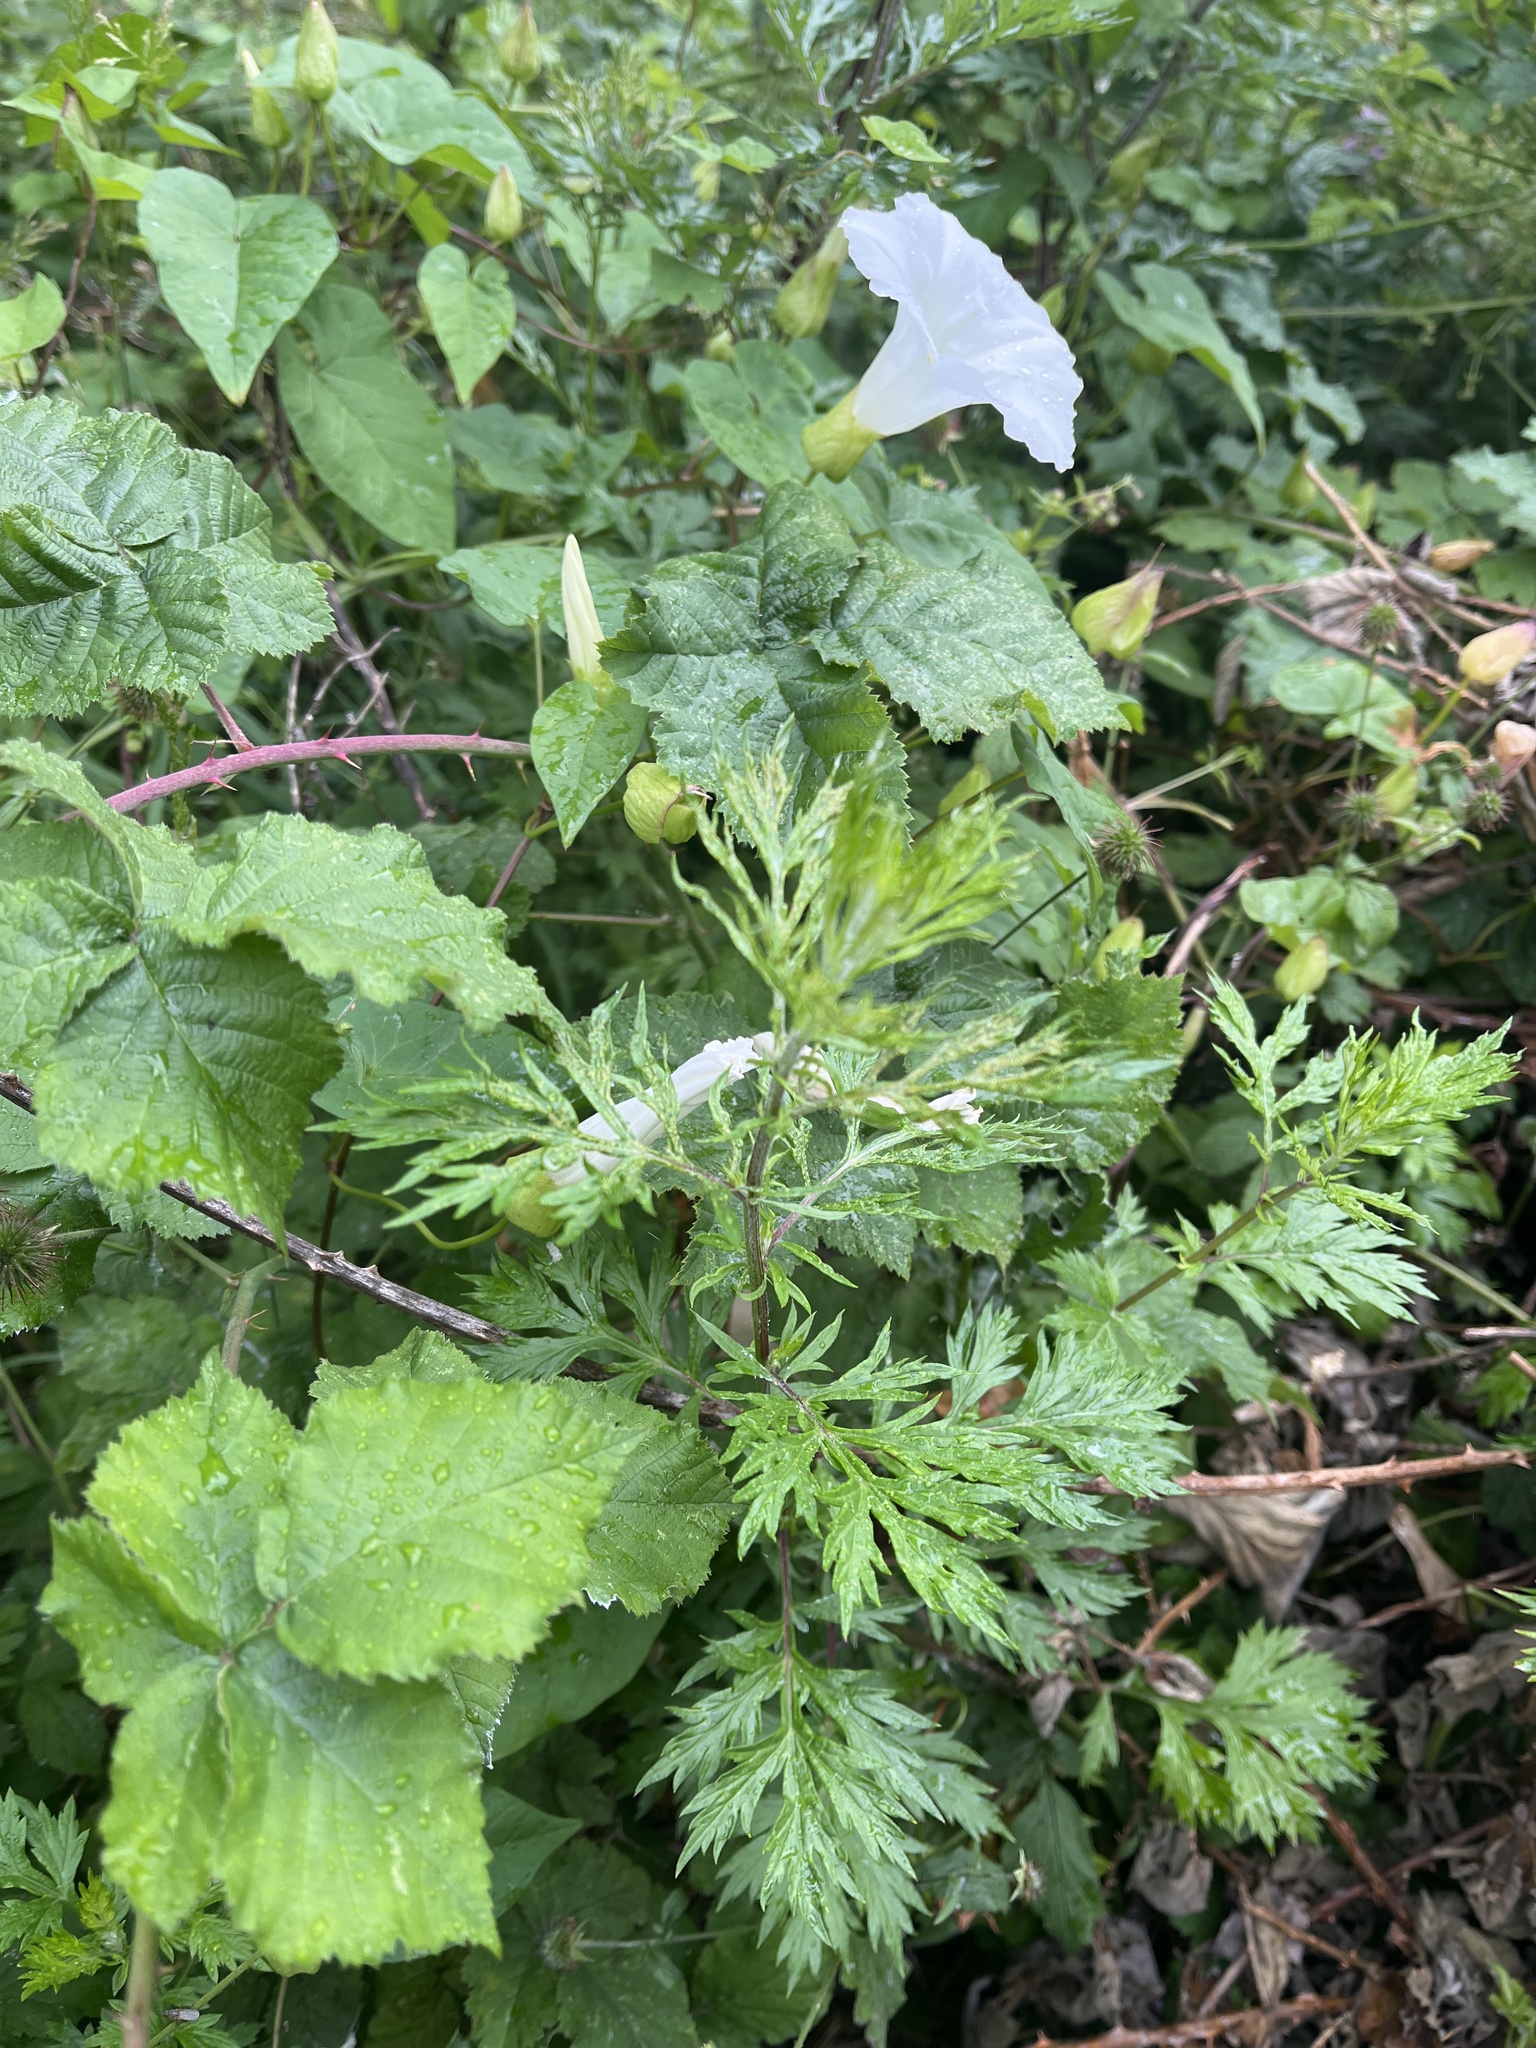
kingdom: Plantae
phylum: Tracheophyta
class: Magnoliopsida
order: Asterales
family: Asteraceae
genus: Artemisia
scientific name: Artemisia vulgaris
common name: Mugwort
